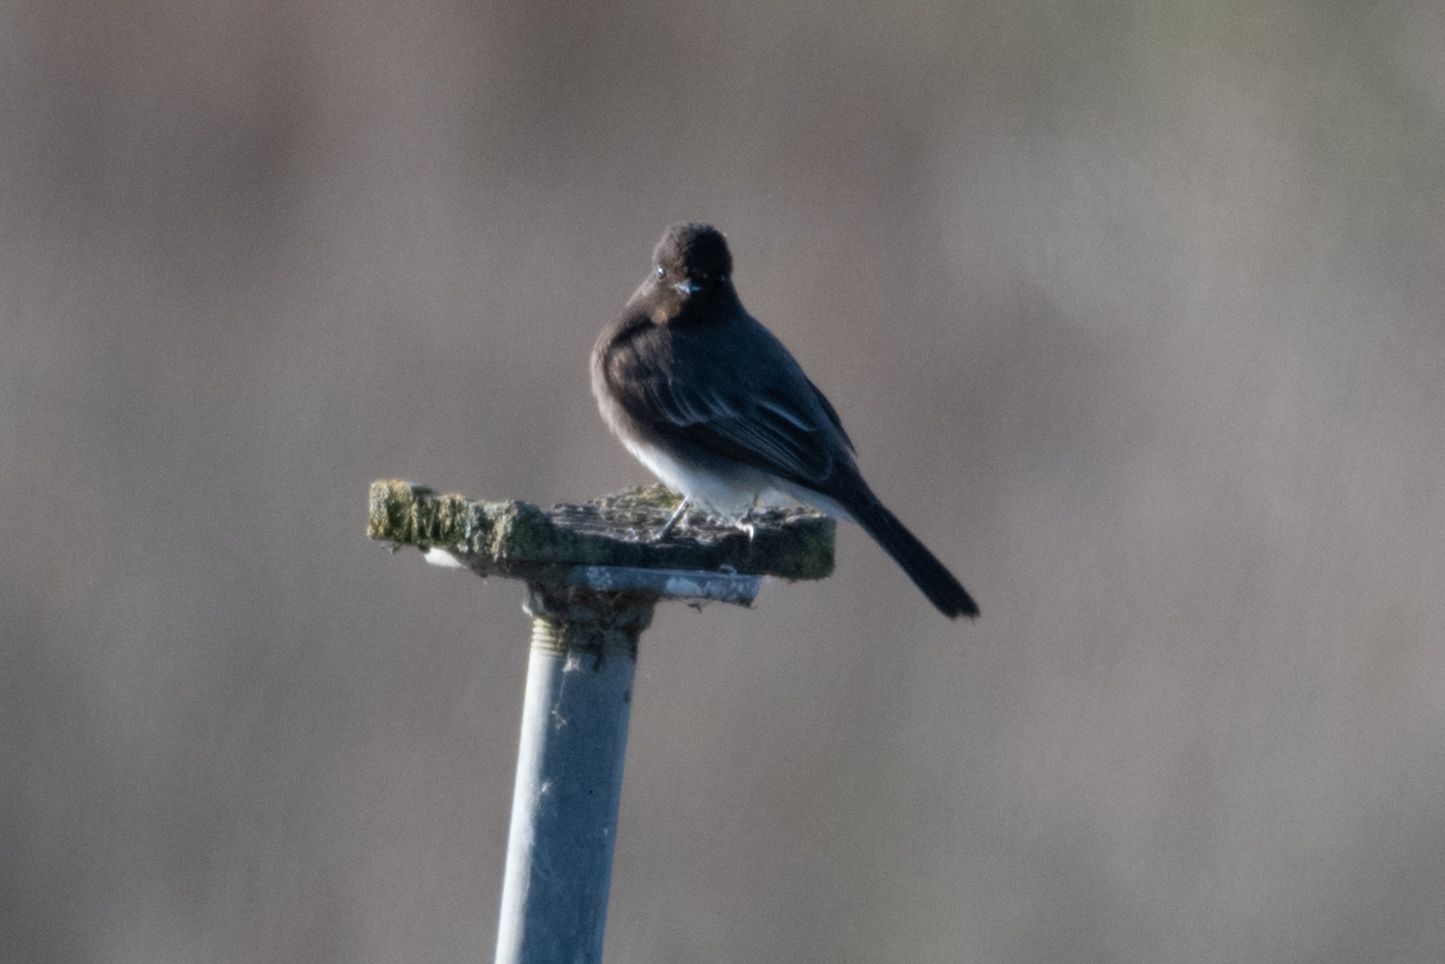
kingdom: Animalia
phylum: Chordata
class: Aves
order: Passeriformes
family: Tyrannidae
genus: Sayornis
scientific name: Sayornis nigricans
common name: Black phoebe
